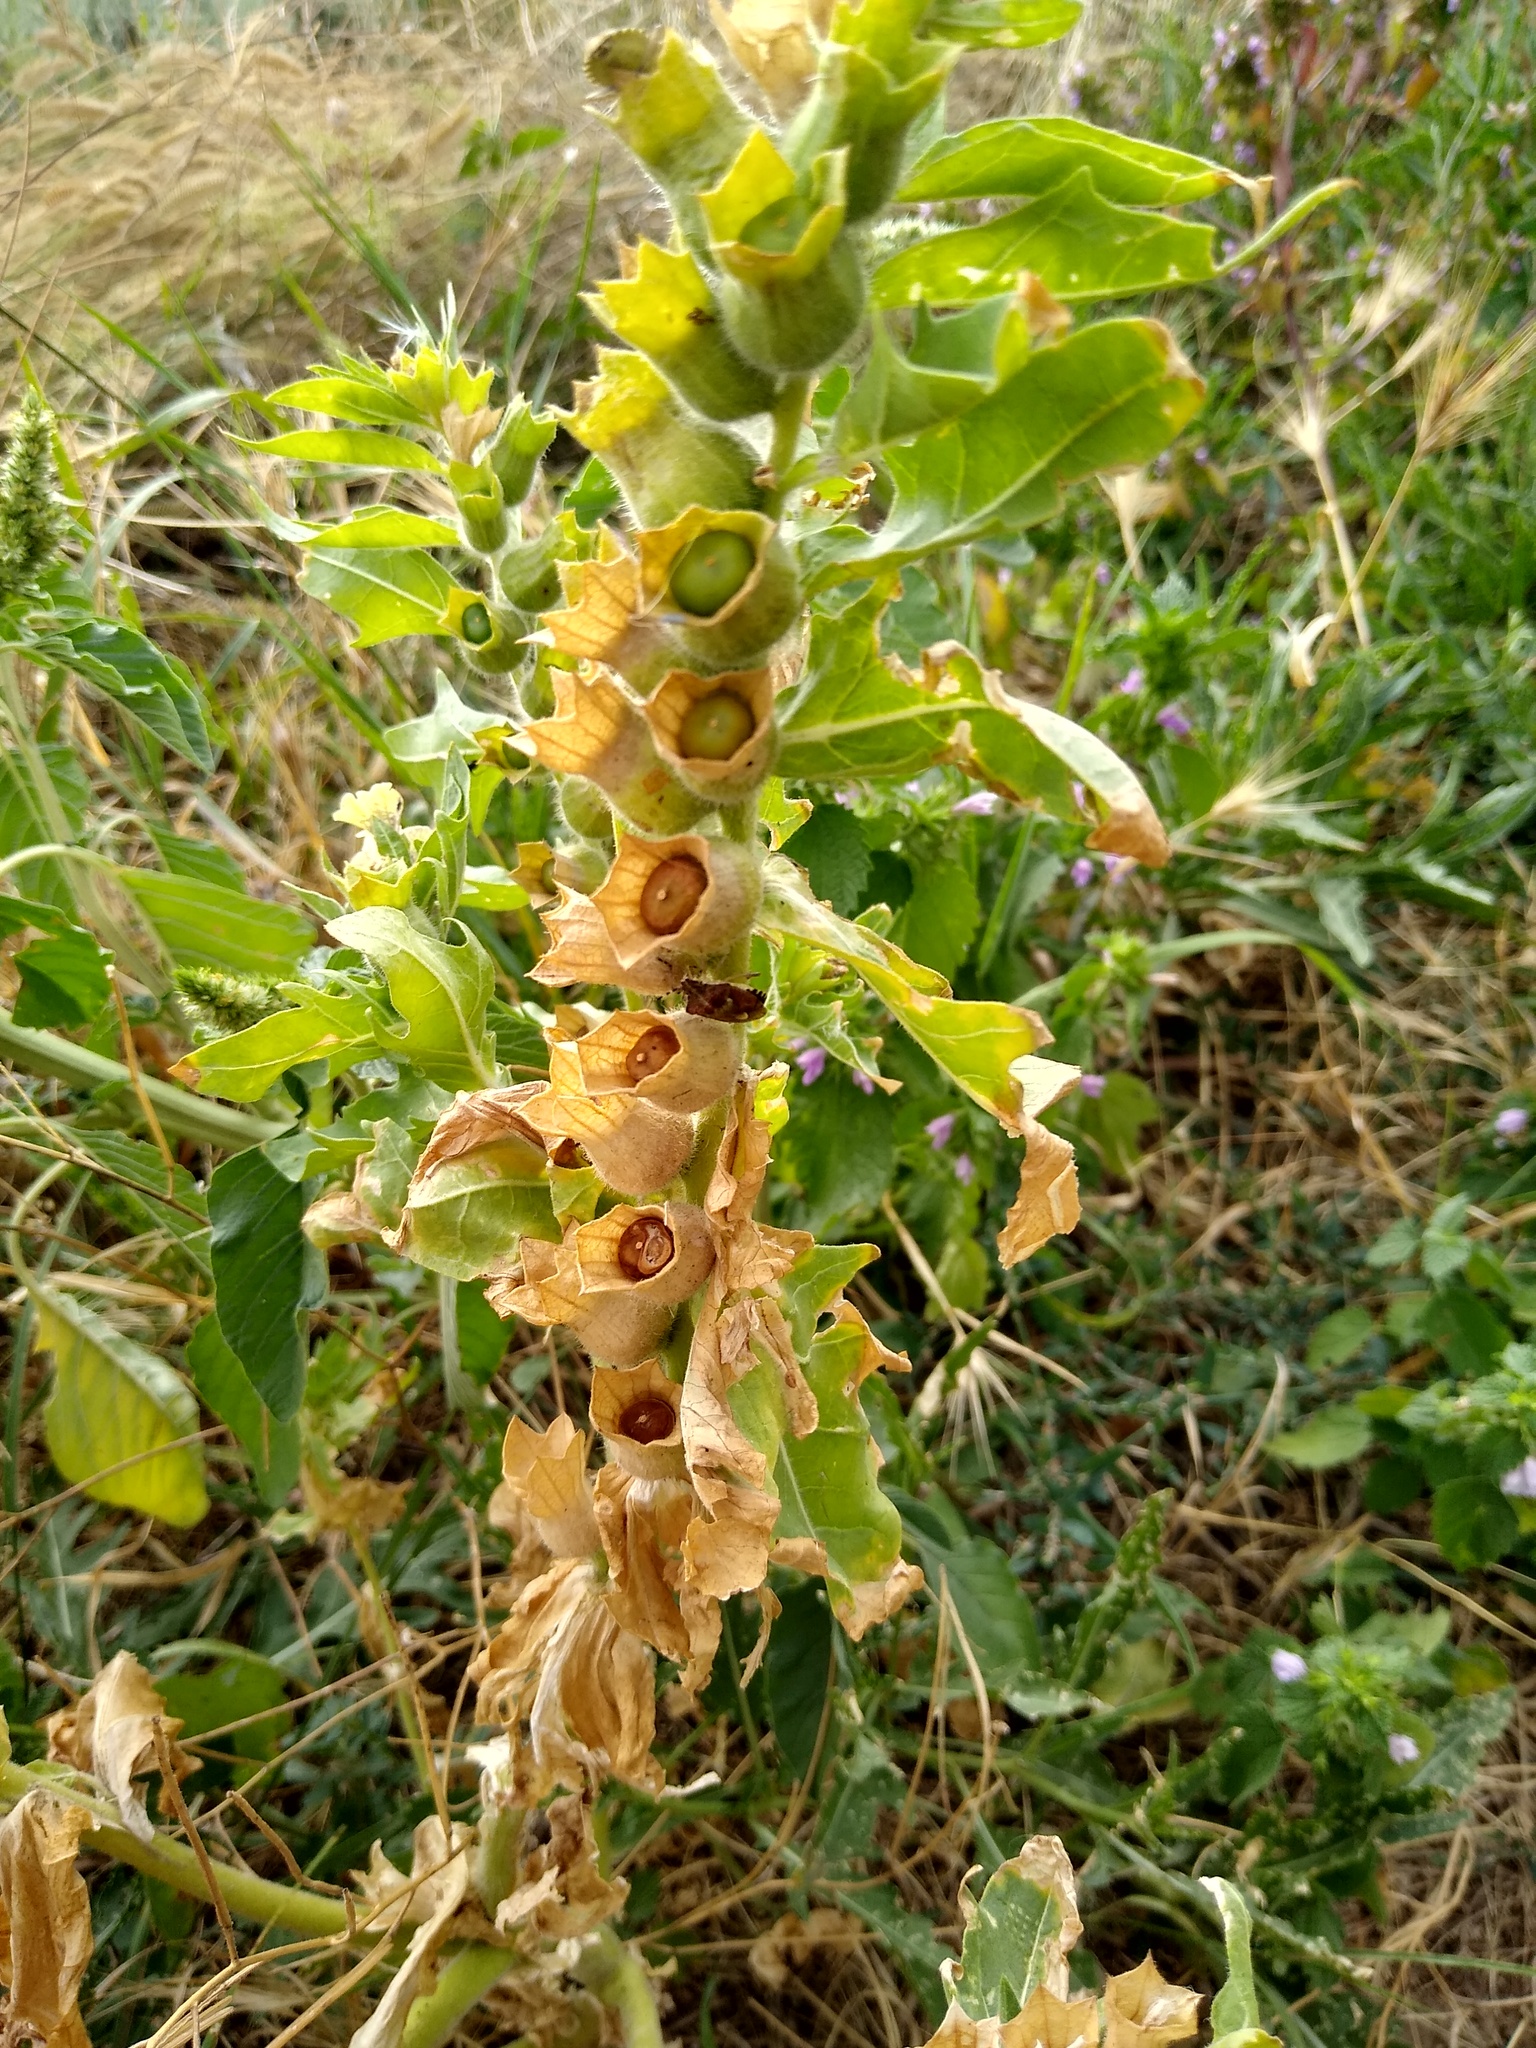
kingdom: Plantae
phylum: Tracheophyta
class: Magnoliopsida
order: Solanales
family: Solanaceae
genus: Hyoscyamus
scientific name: Hyoscyamus niger
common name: Henbane
